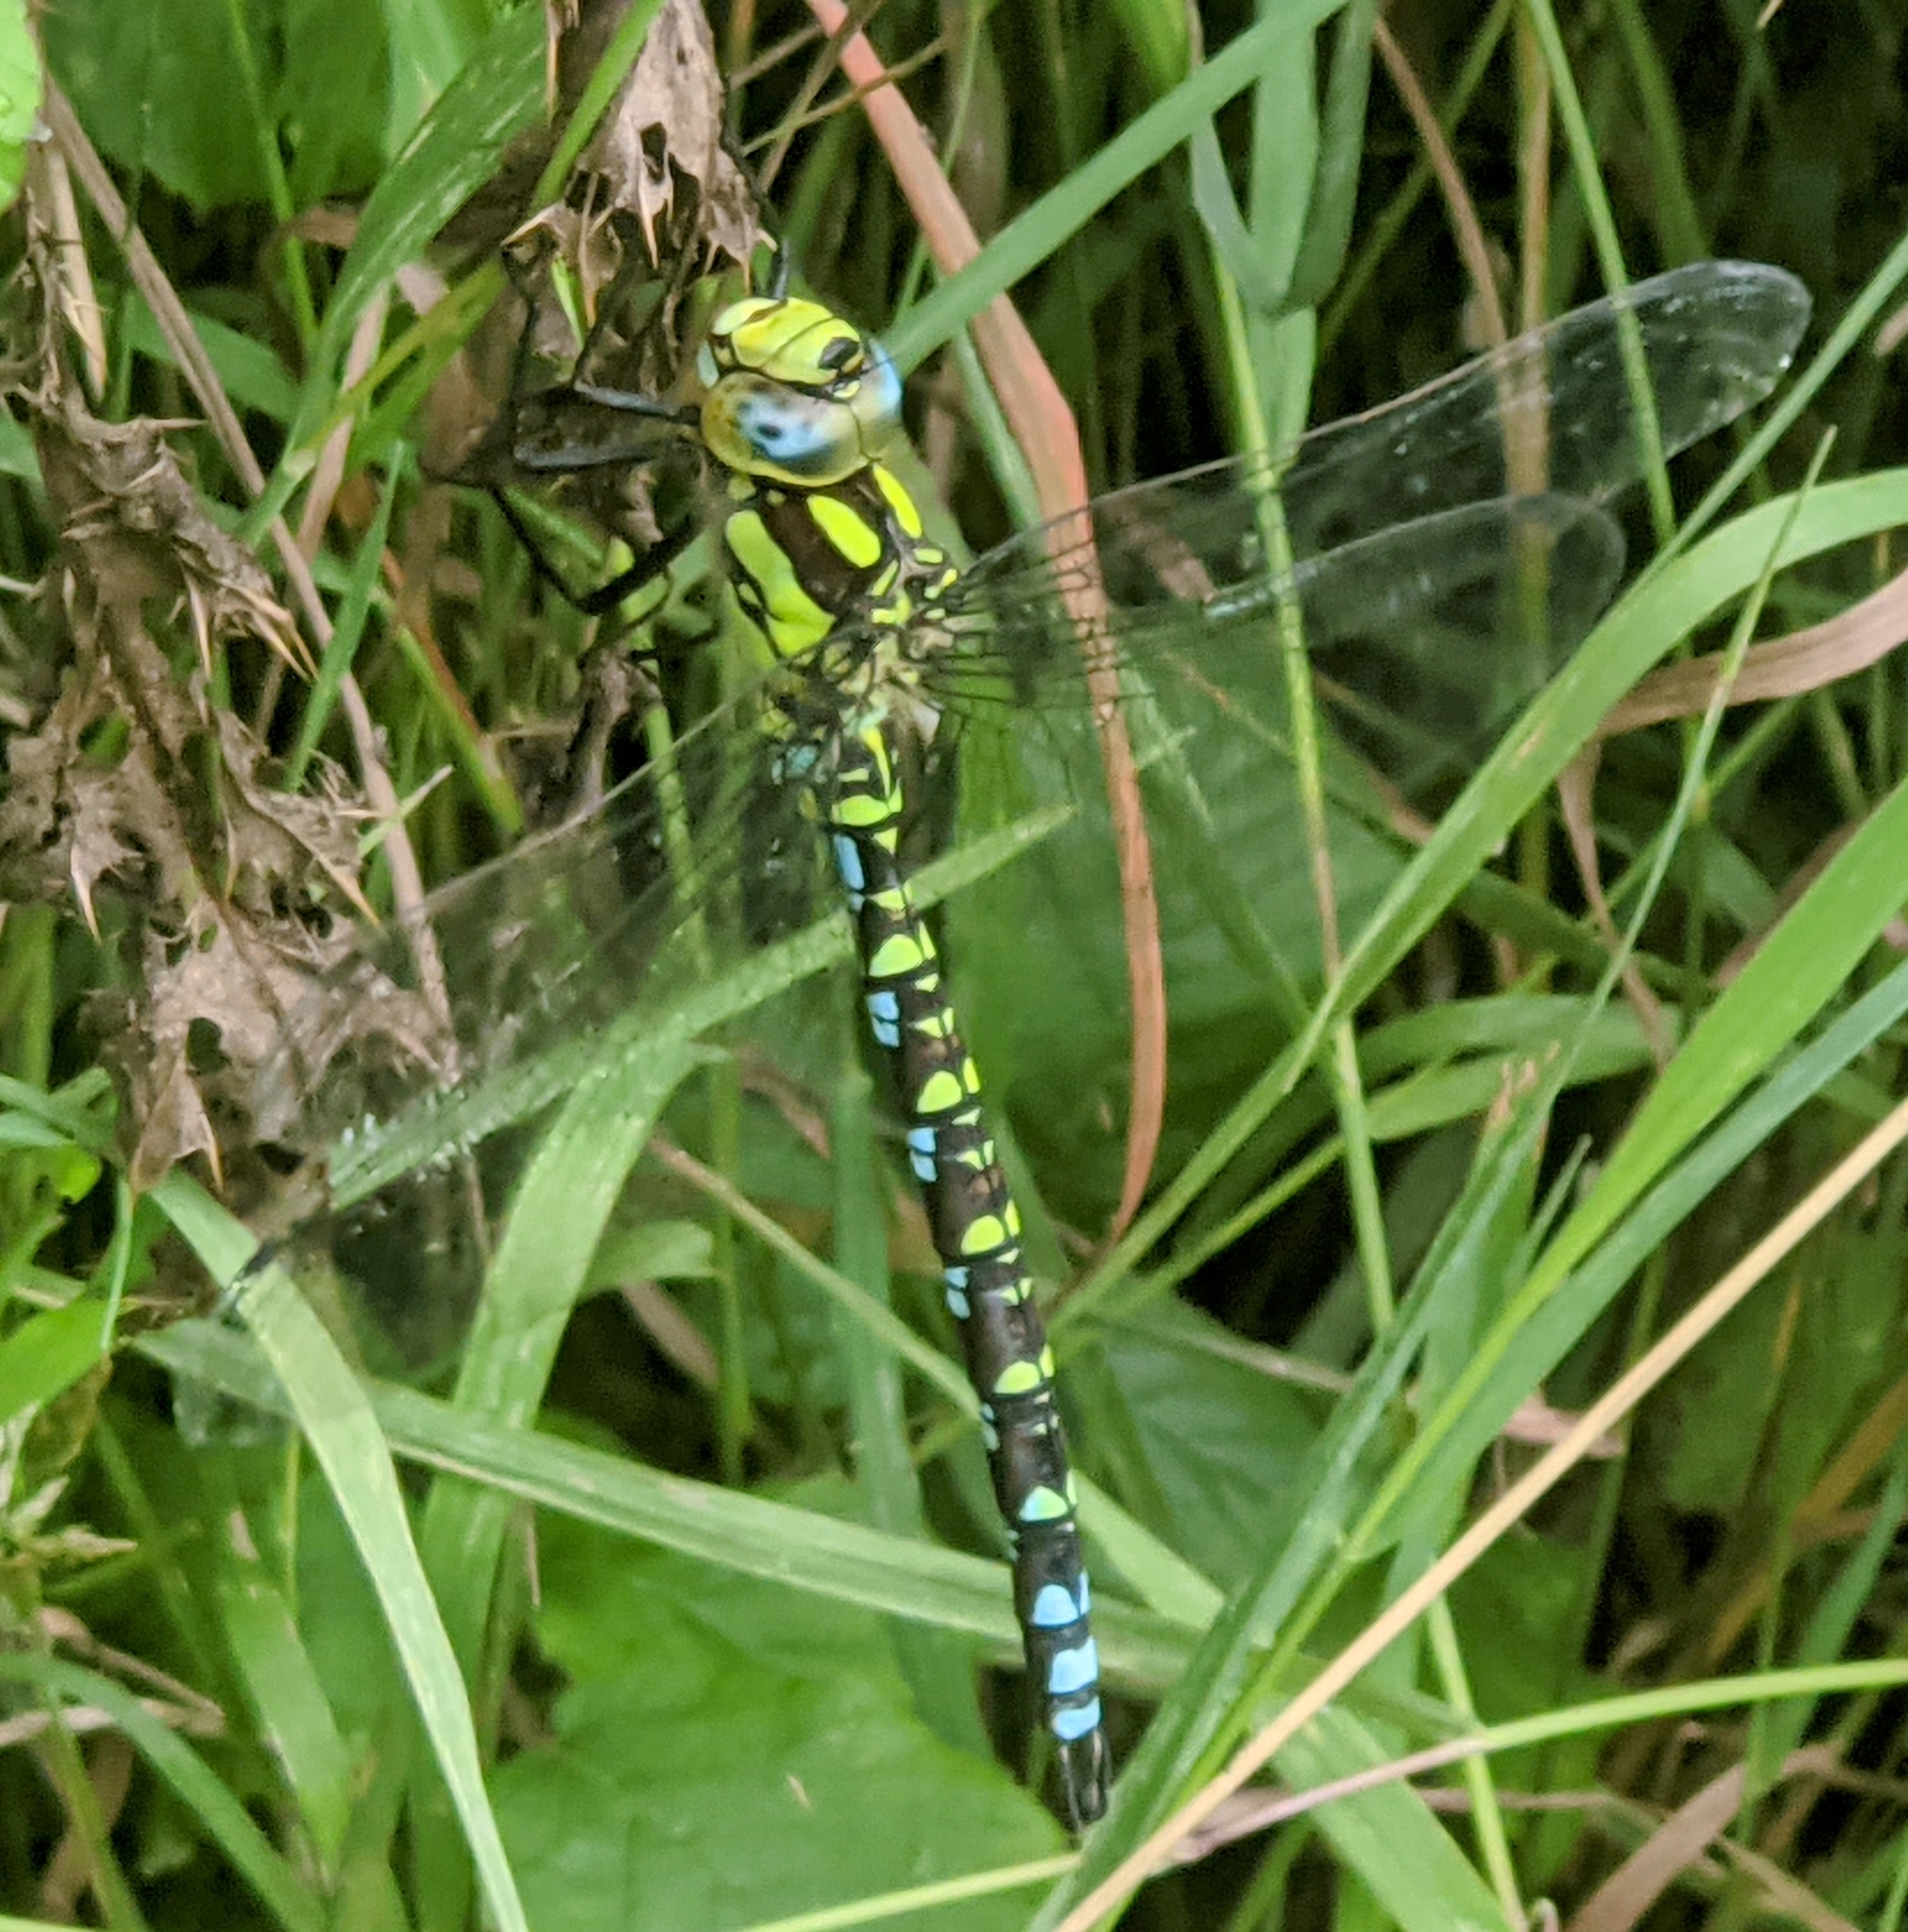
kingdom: Animalia
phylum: Arthropoda
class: Insecta
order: Odonata
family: Aeshnidae
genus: Aeshna
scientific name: Aeshna cyanea
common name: Southern hawker
